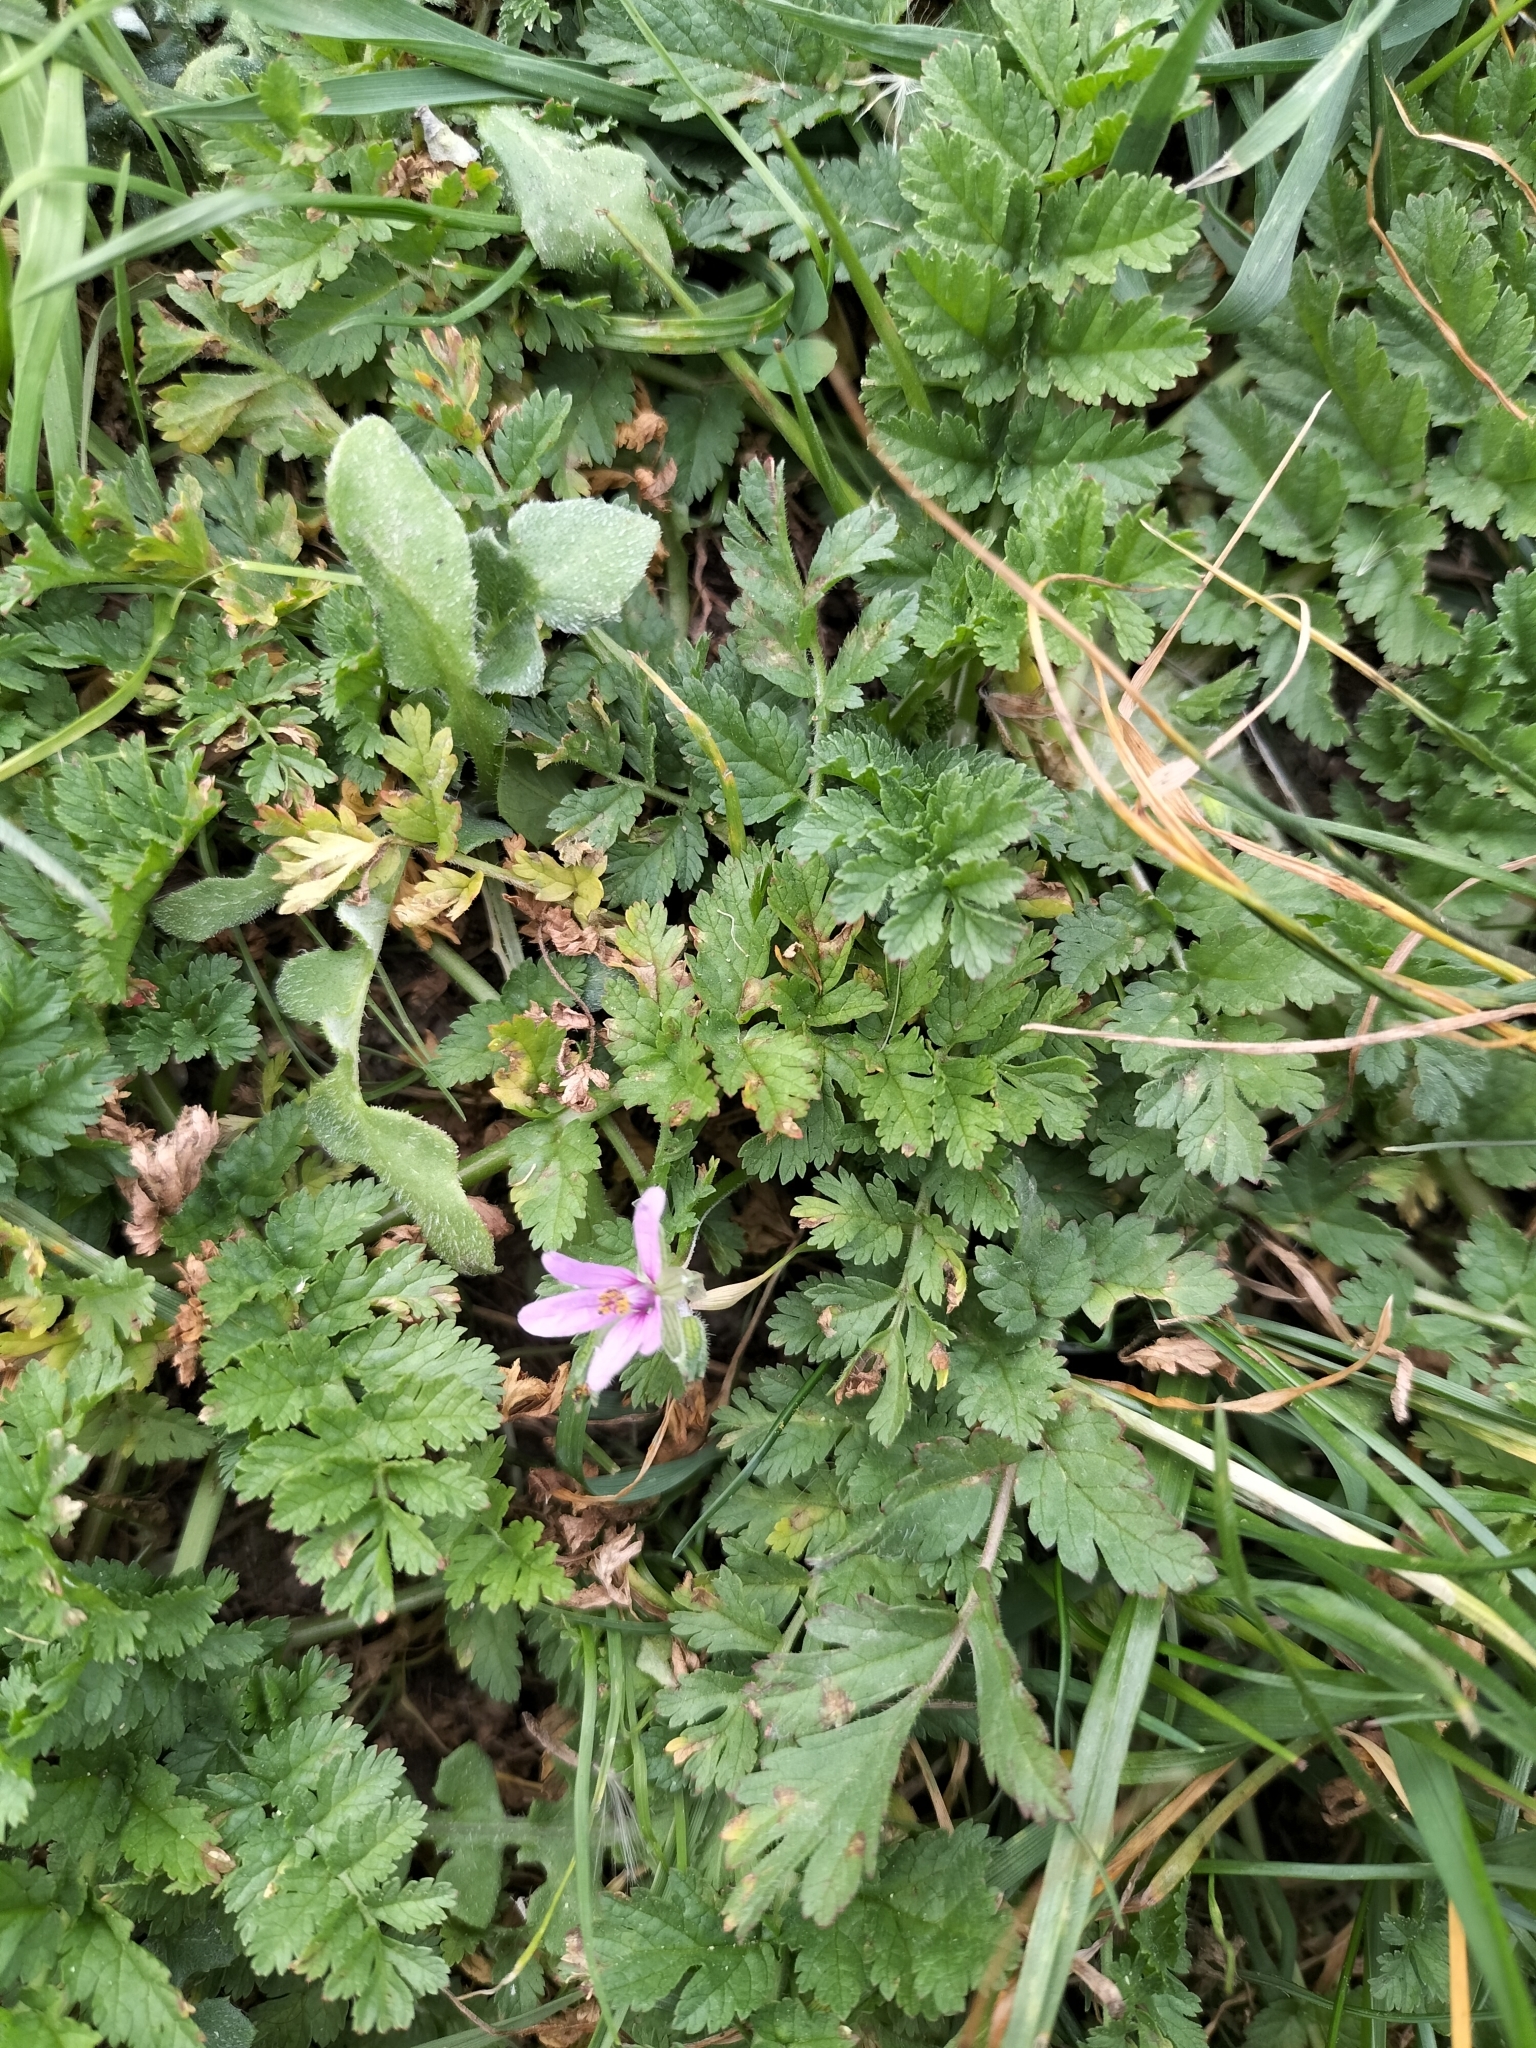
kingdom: Plantae
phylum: Tracheophyta
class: Magnoliopsida
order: Geraniales
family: Geraniaceae
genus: Erodium
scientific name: Erodium moschatum
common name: Musk stork's-bill
